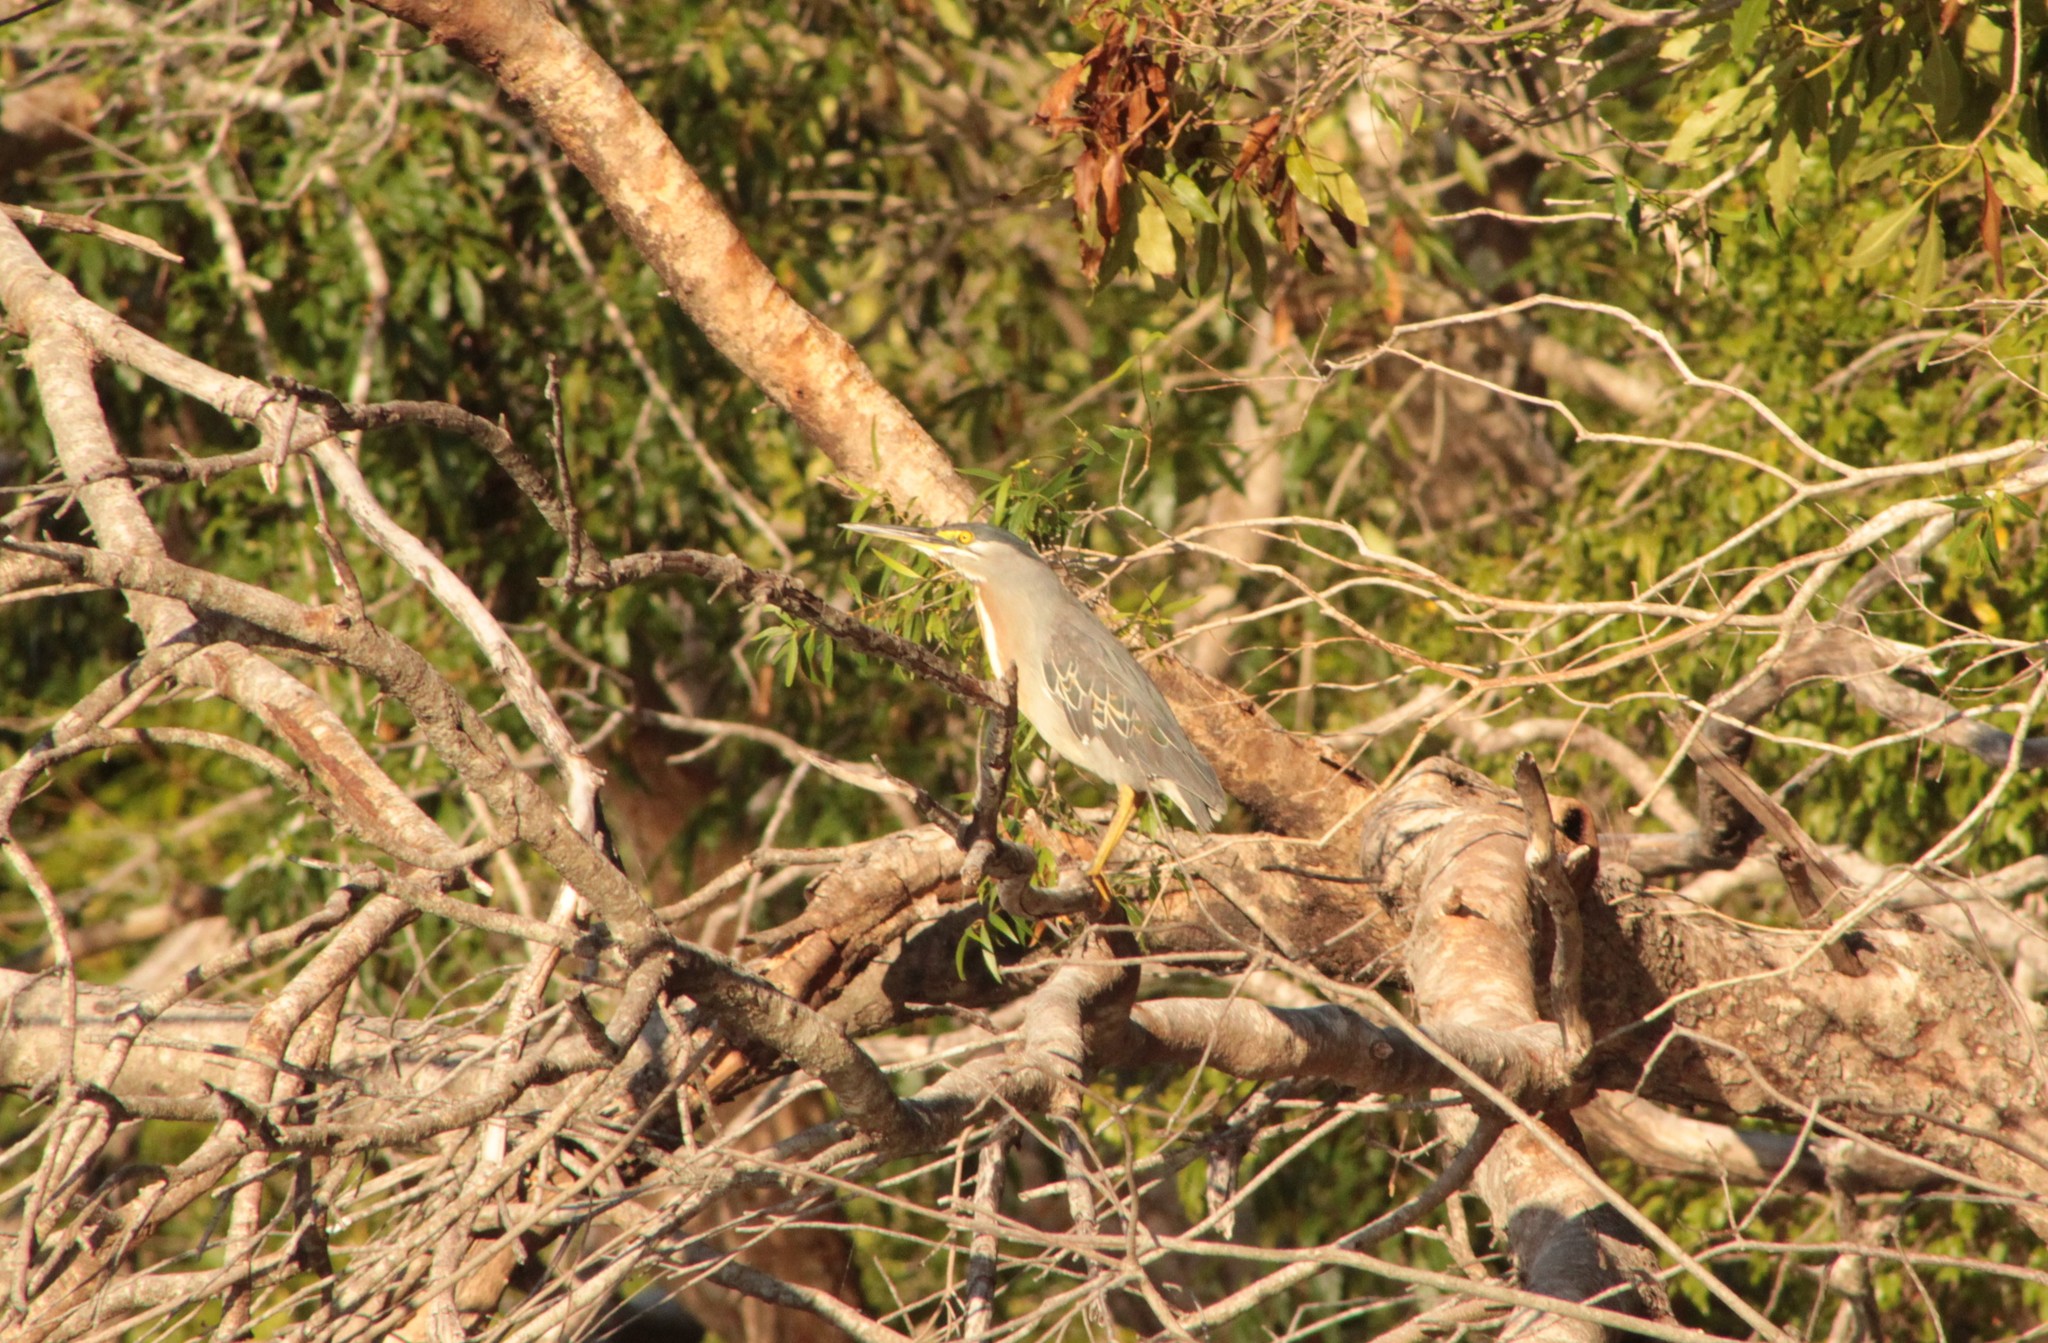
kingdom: Animalia
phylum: Chordata
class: Aves
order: Pelecaniformes
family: Ardeidae
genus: Butorides
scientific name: Butorides striata
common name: Striated heron
